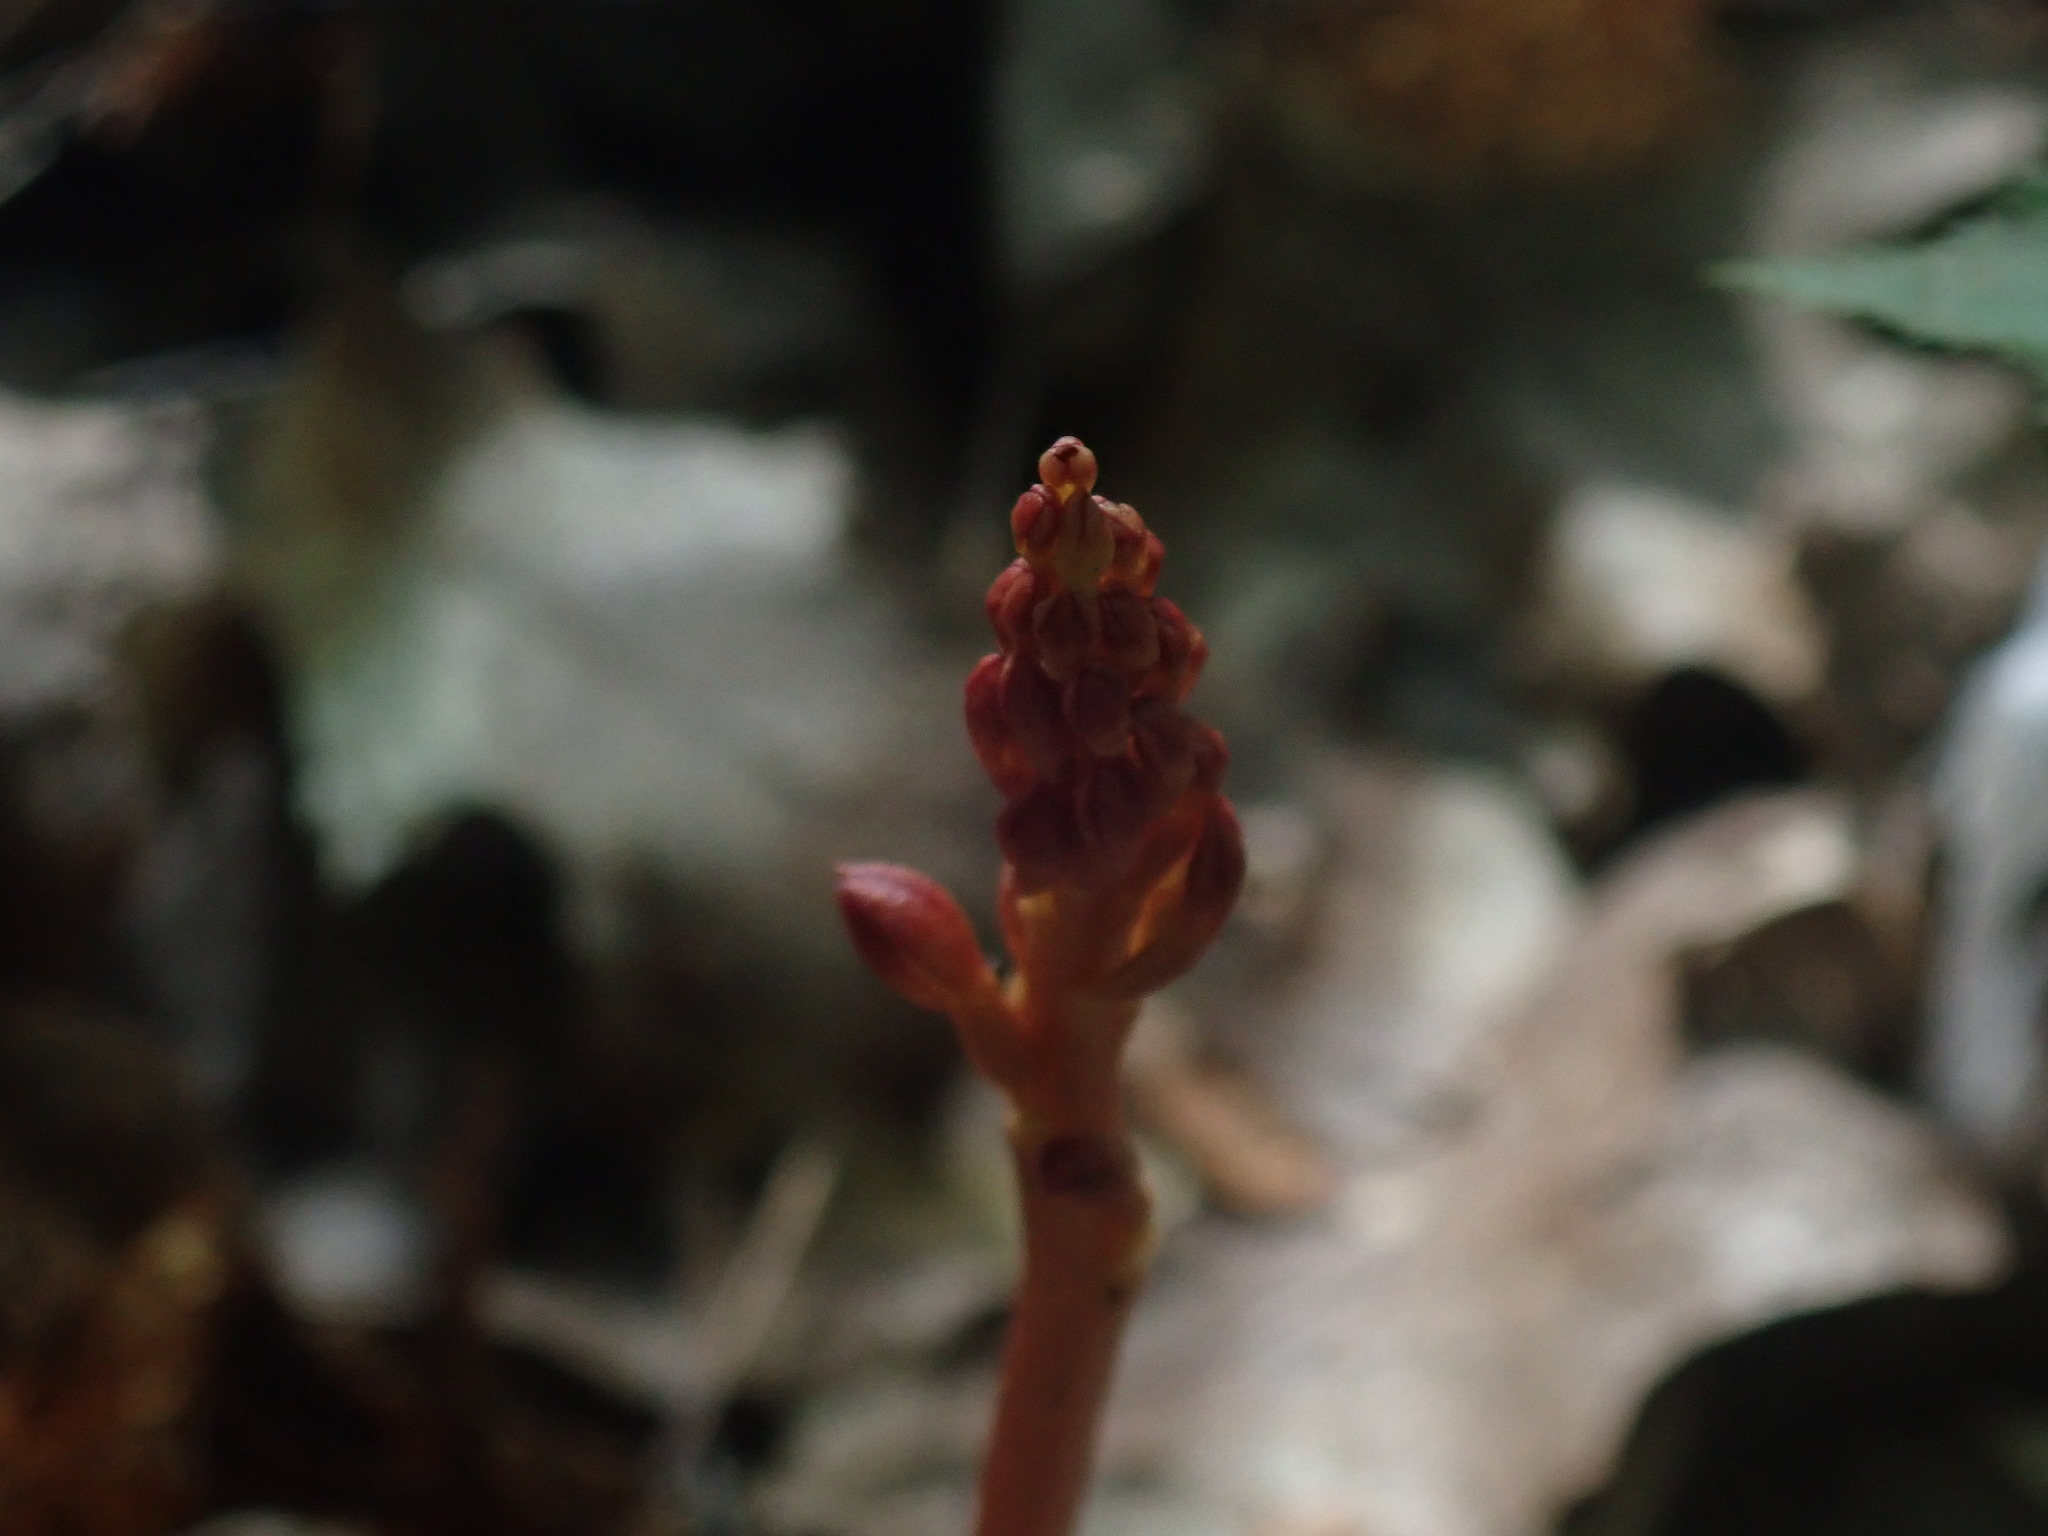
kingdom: Plantae
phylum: Tracheophyta
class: Liliopsida
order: Asparagales
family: Orchidaceae
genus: Corallorhiza
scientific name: Corallorhiza maculata
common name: Spotted coralroot
